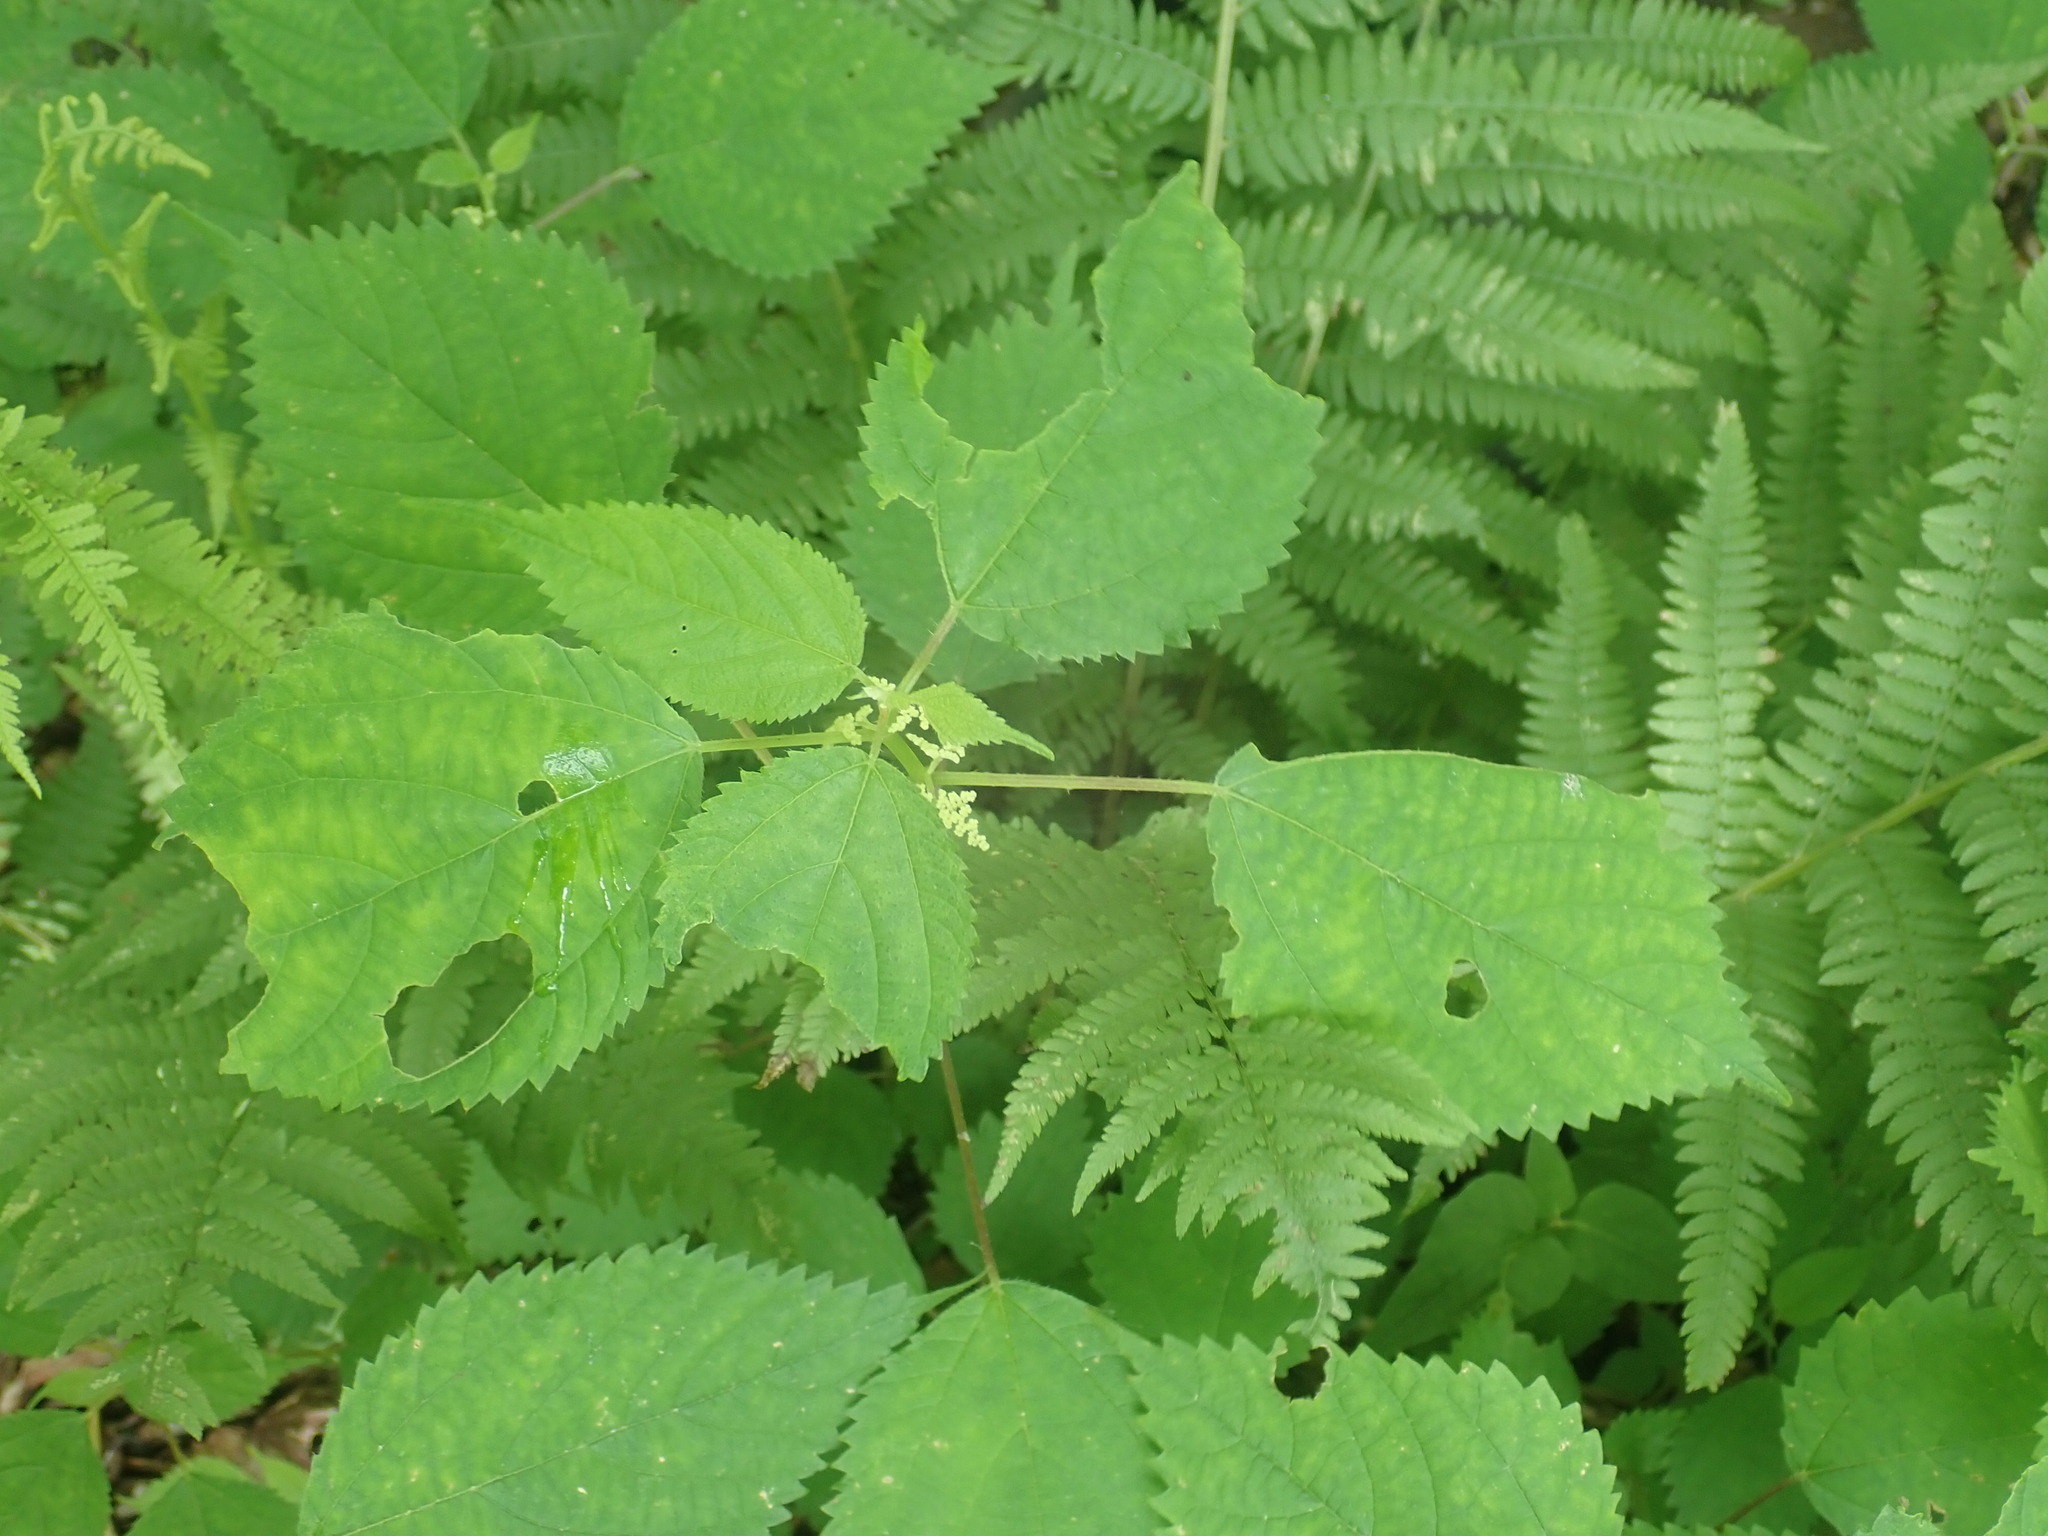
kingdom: Plantae
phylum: Tracheophyta
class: Magnoliopsida
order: Rosales
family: Urticaceae
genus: Laportea
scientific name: Laportea canadensis
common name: Canada nettle
